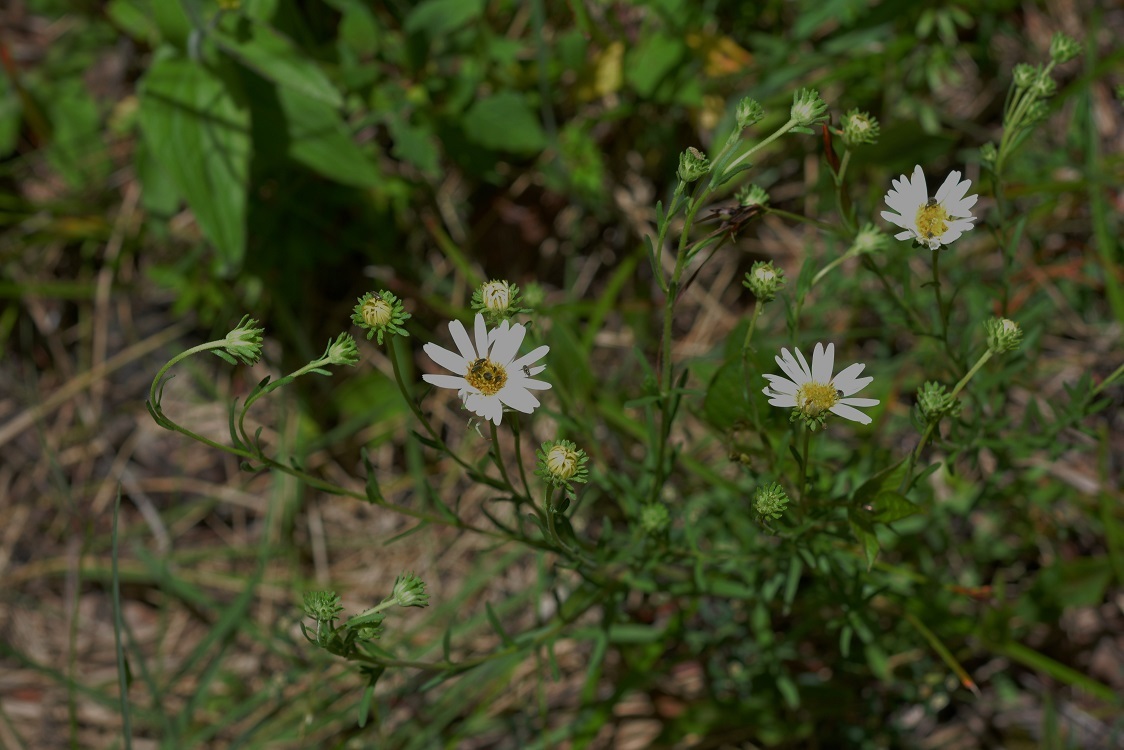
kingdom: Plantae
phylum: Tracheophyta
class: Magnoliopsida
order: Asterales
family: Asteraceae
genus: Symphyotrichum
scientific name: Symphyotrichum trilineatum
